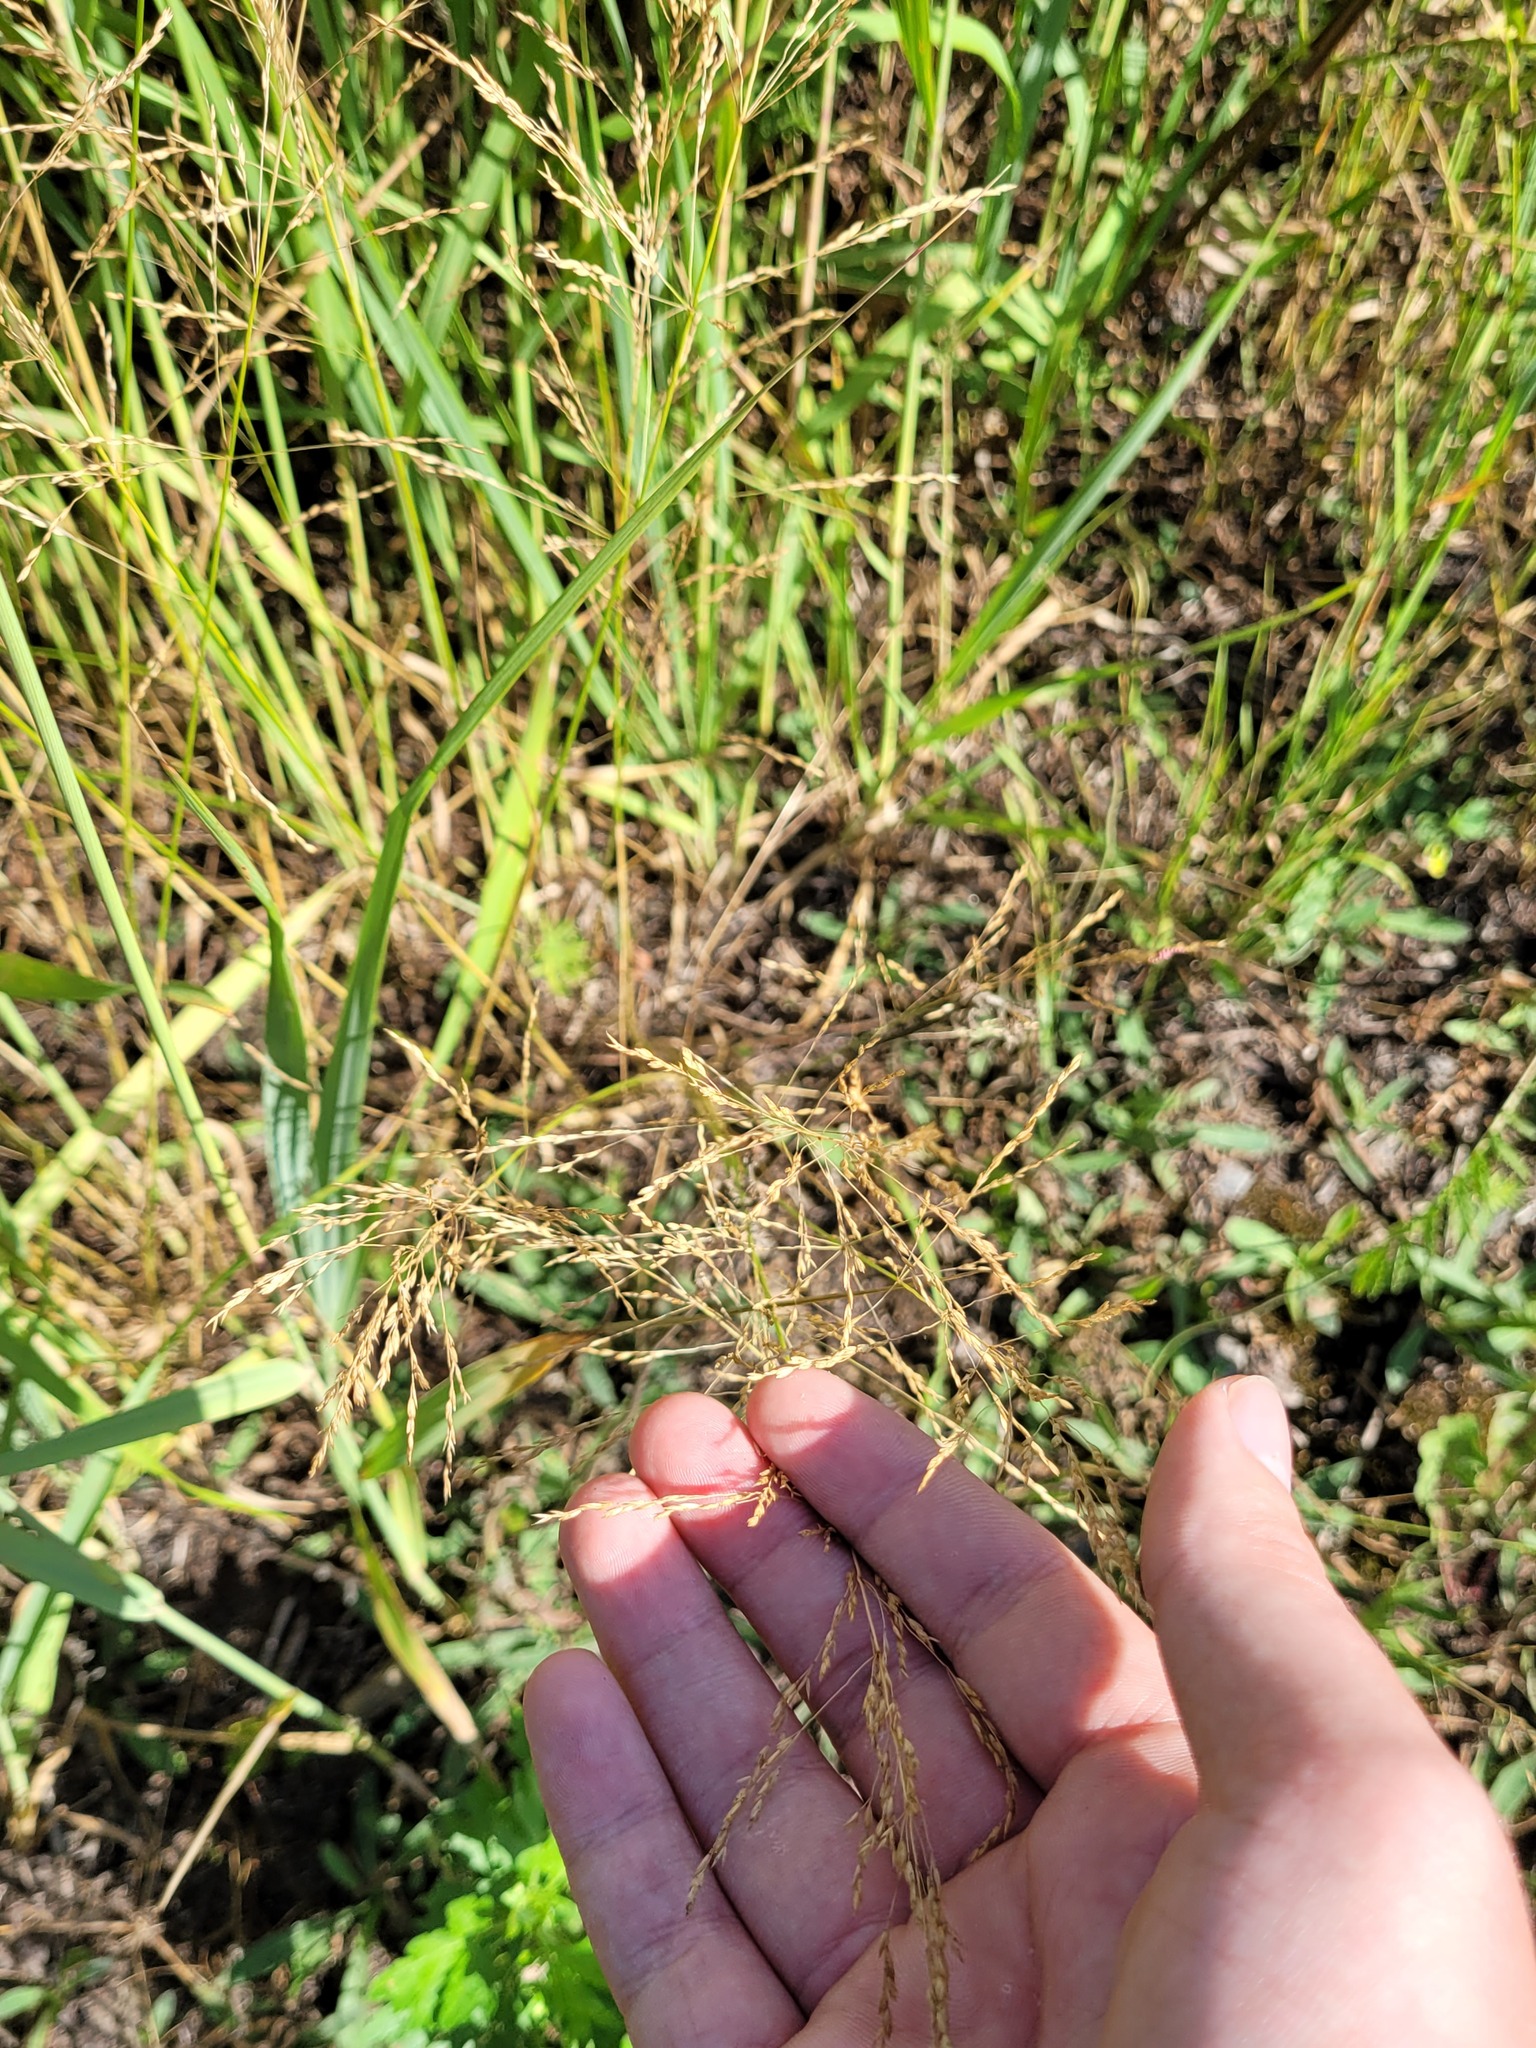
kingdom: Plantae
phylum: Tracheophyta
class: Liliopsida
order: Poales
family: Poaceae
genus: Poa
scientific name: Poa palustris
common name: Swamp meadow-grass
